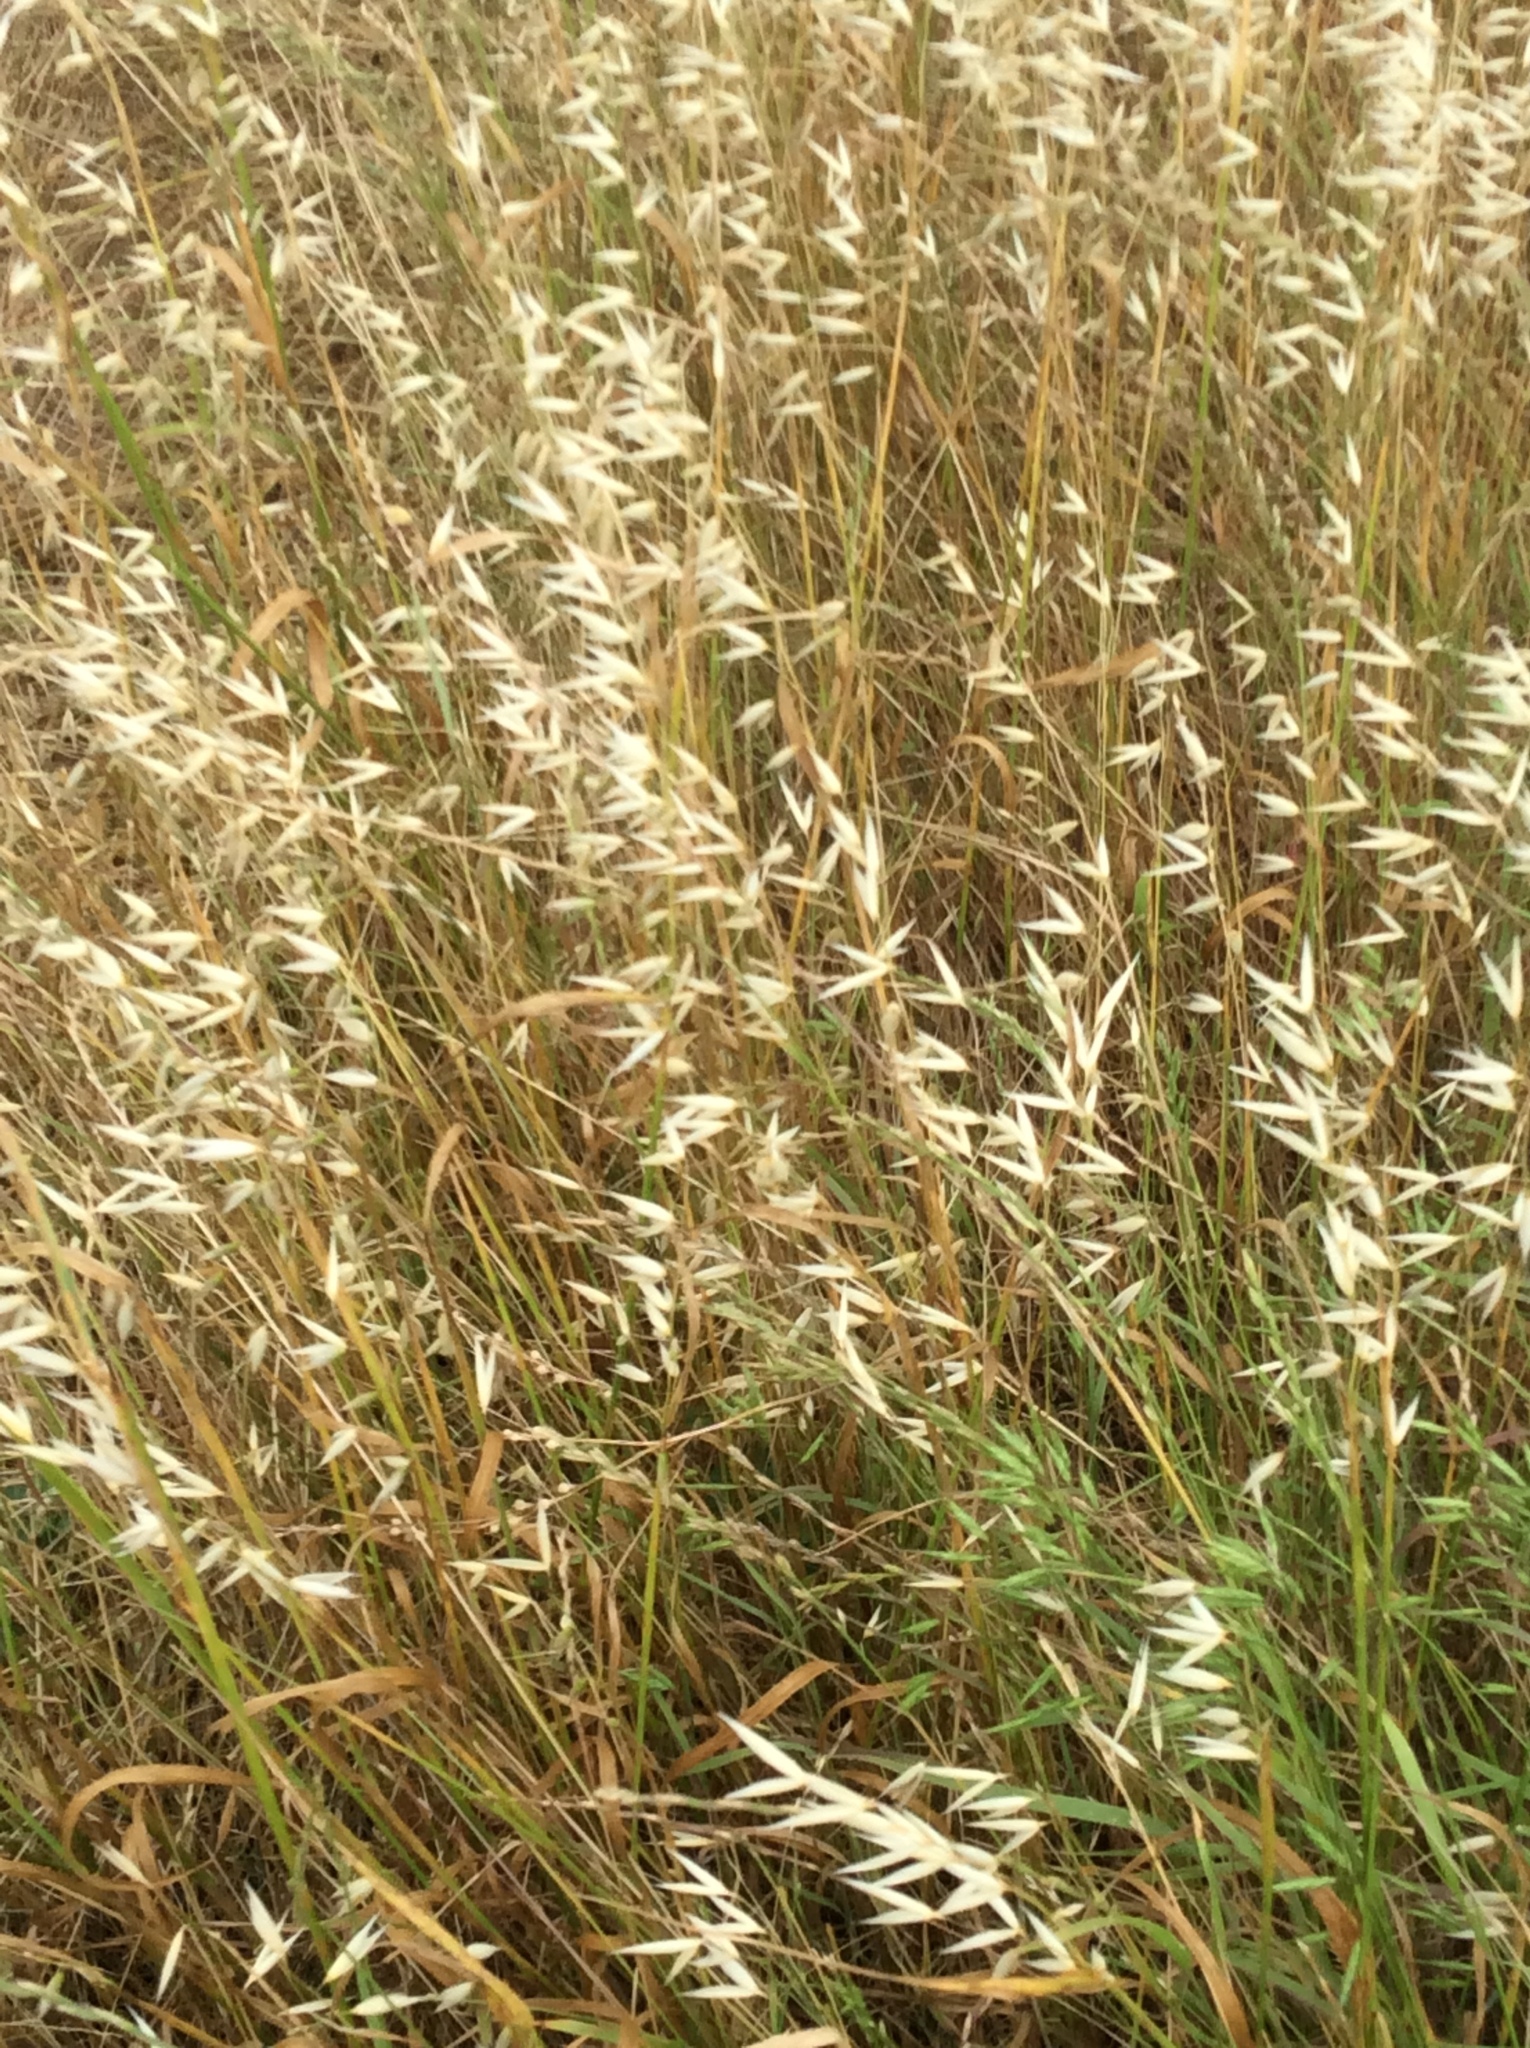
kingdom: Plantae
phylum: Tracheophyta
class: Liliopsida
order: Poales
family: Poaceae
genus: Avena
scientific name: Avena fatua
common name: Wild oat
